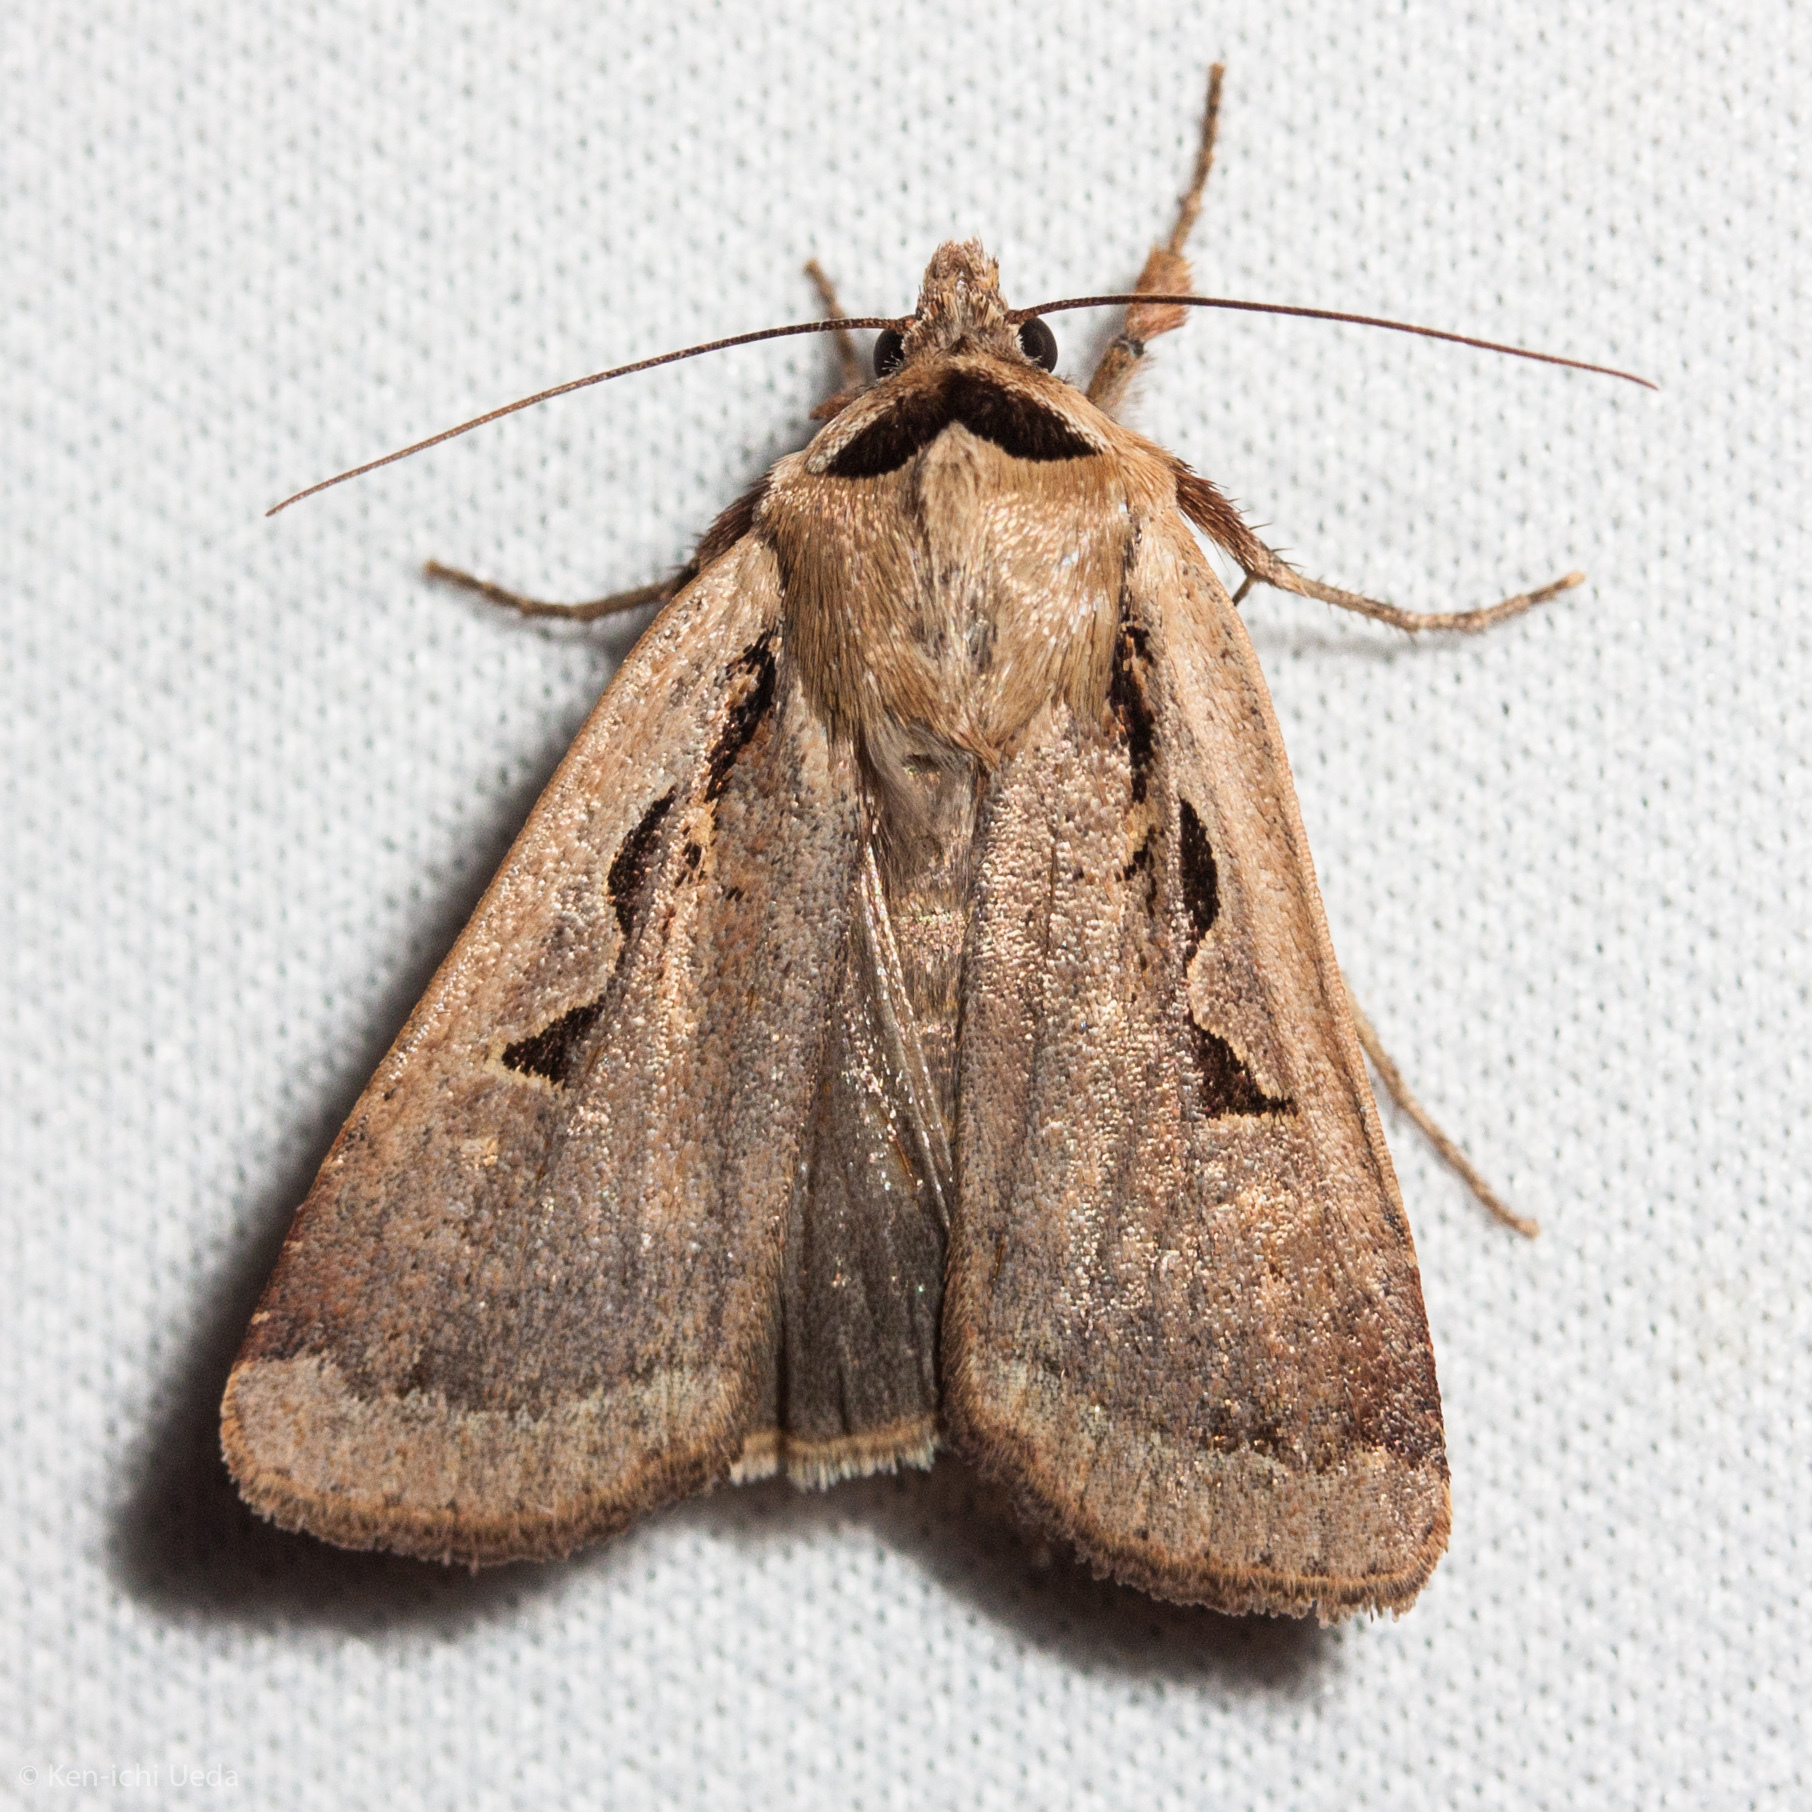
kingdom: Animalia
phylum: Arthropoda
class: Insecta
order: Lepidoptera
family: Noctuidae
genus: Parabagrotis
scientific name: Parabagrotis formalis
